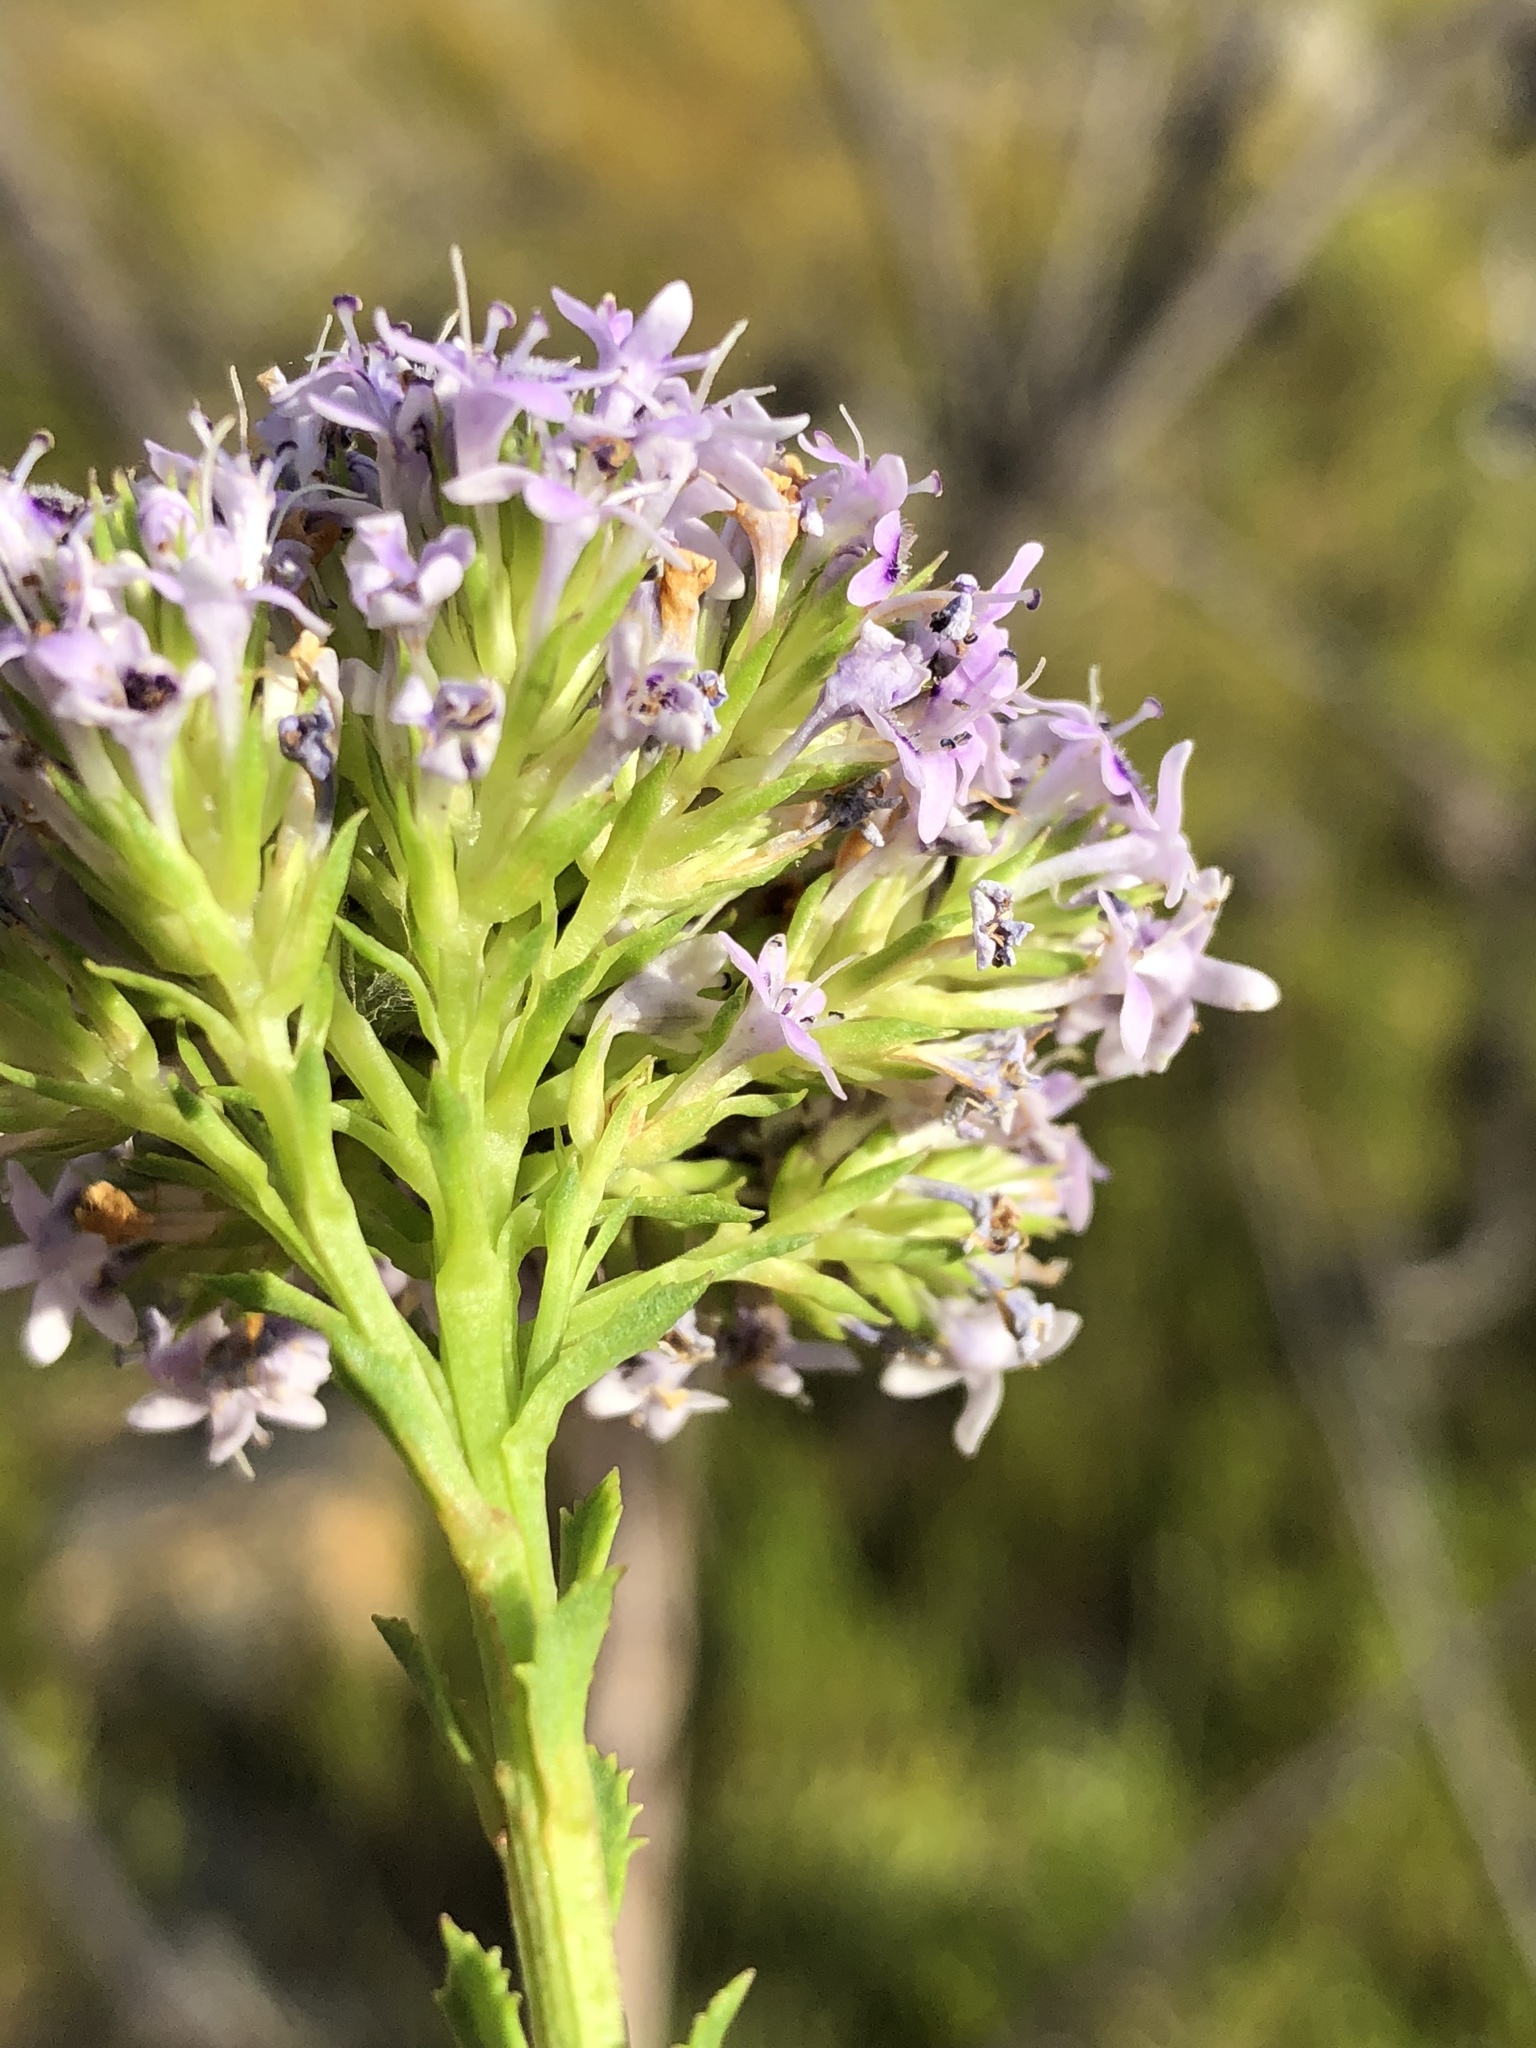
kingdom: Plantae
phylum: Tracheophyta
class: Magnoliopsida
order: Lamiales
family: Scrophulariaceae
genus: Pseudoselago
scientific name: Pseudoselago langebergensis
